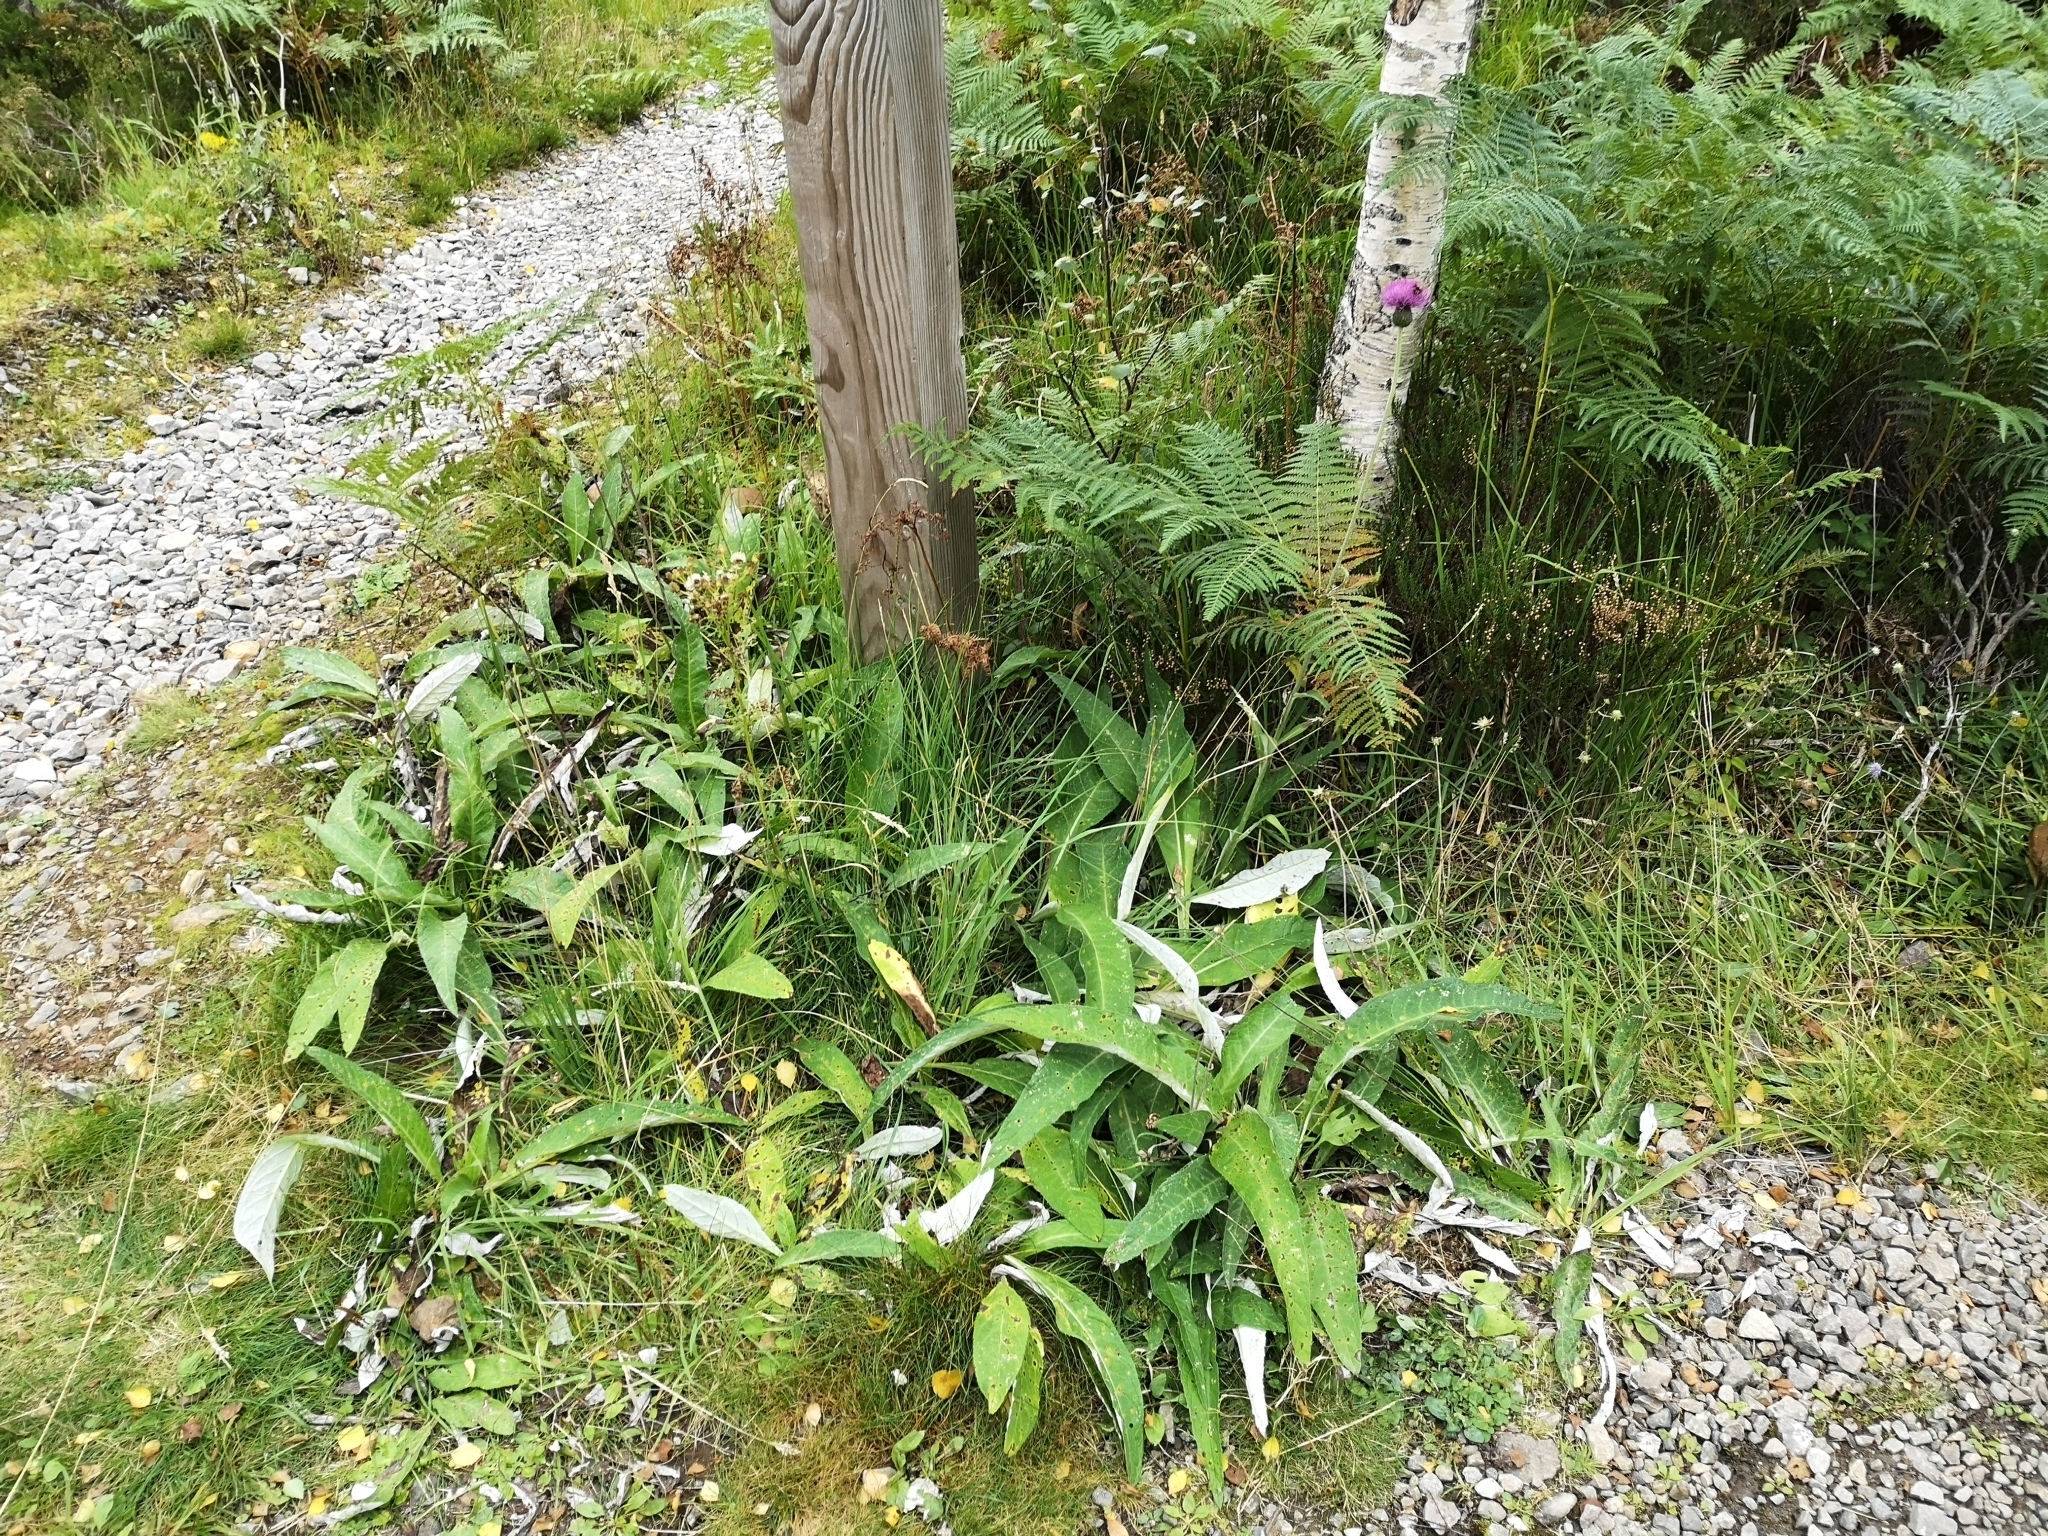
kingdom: Plantae
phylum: Tracheophyta
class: Magnoliopsida
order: Asterales
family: Asteraceae
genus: Cirsium
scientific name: Cirsium heterophyllum
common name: Melancholy thistle
